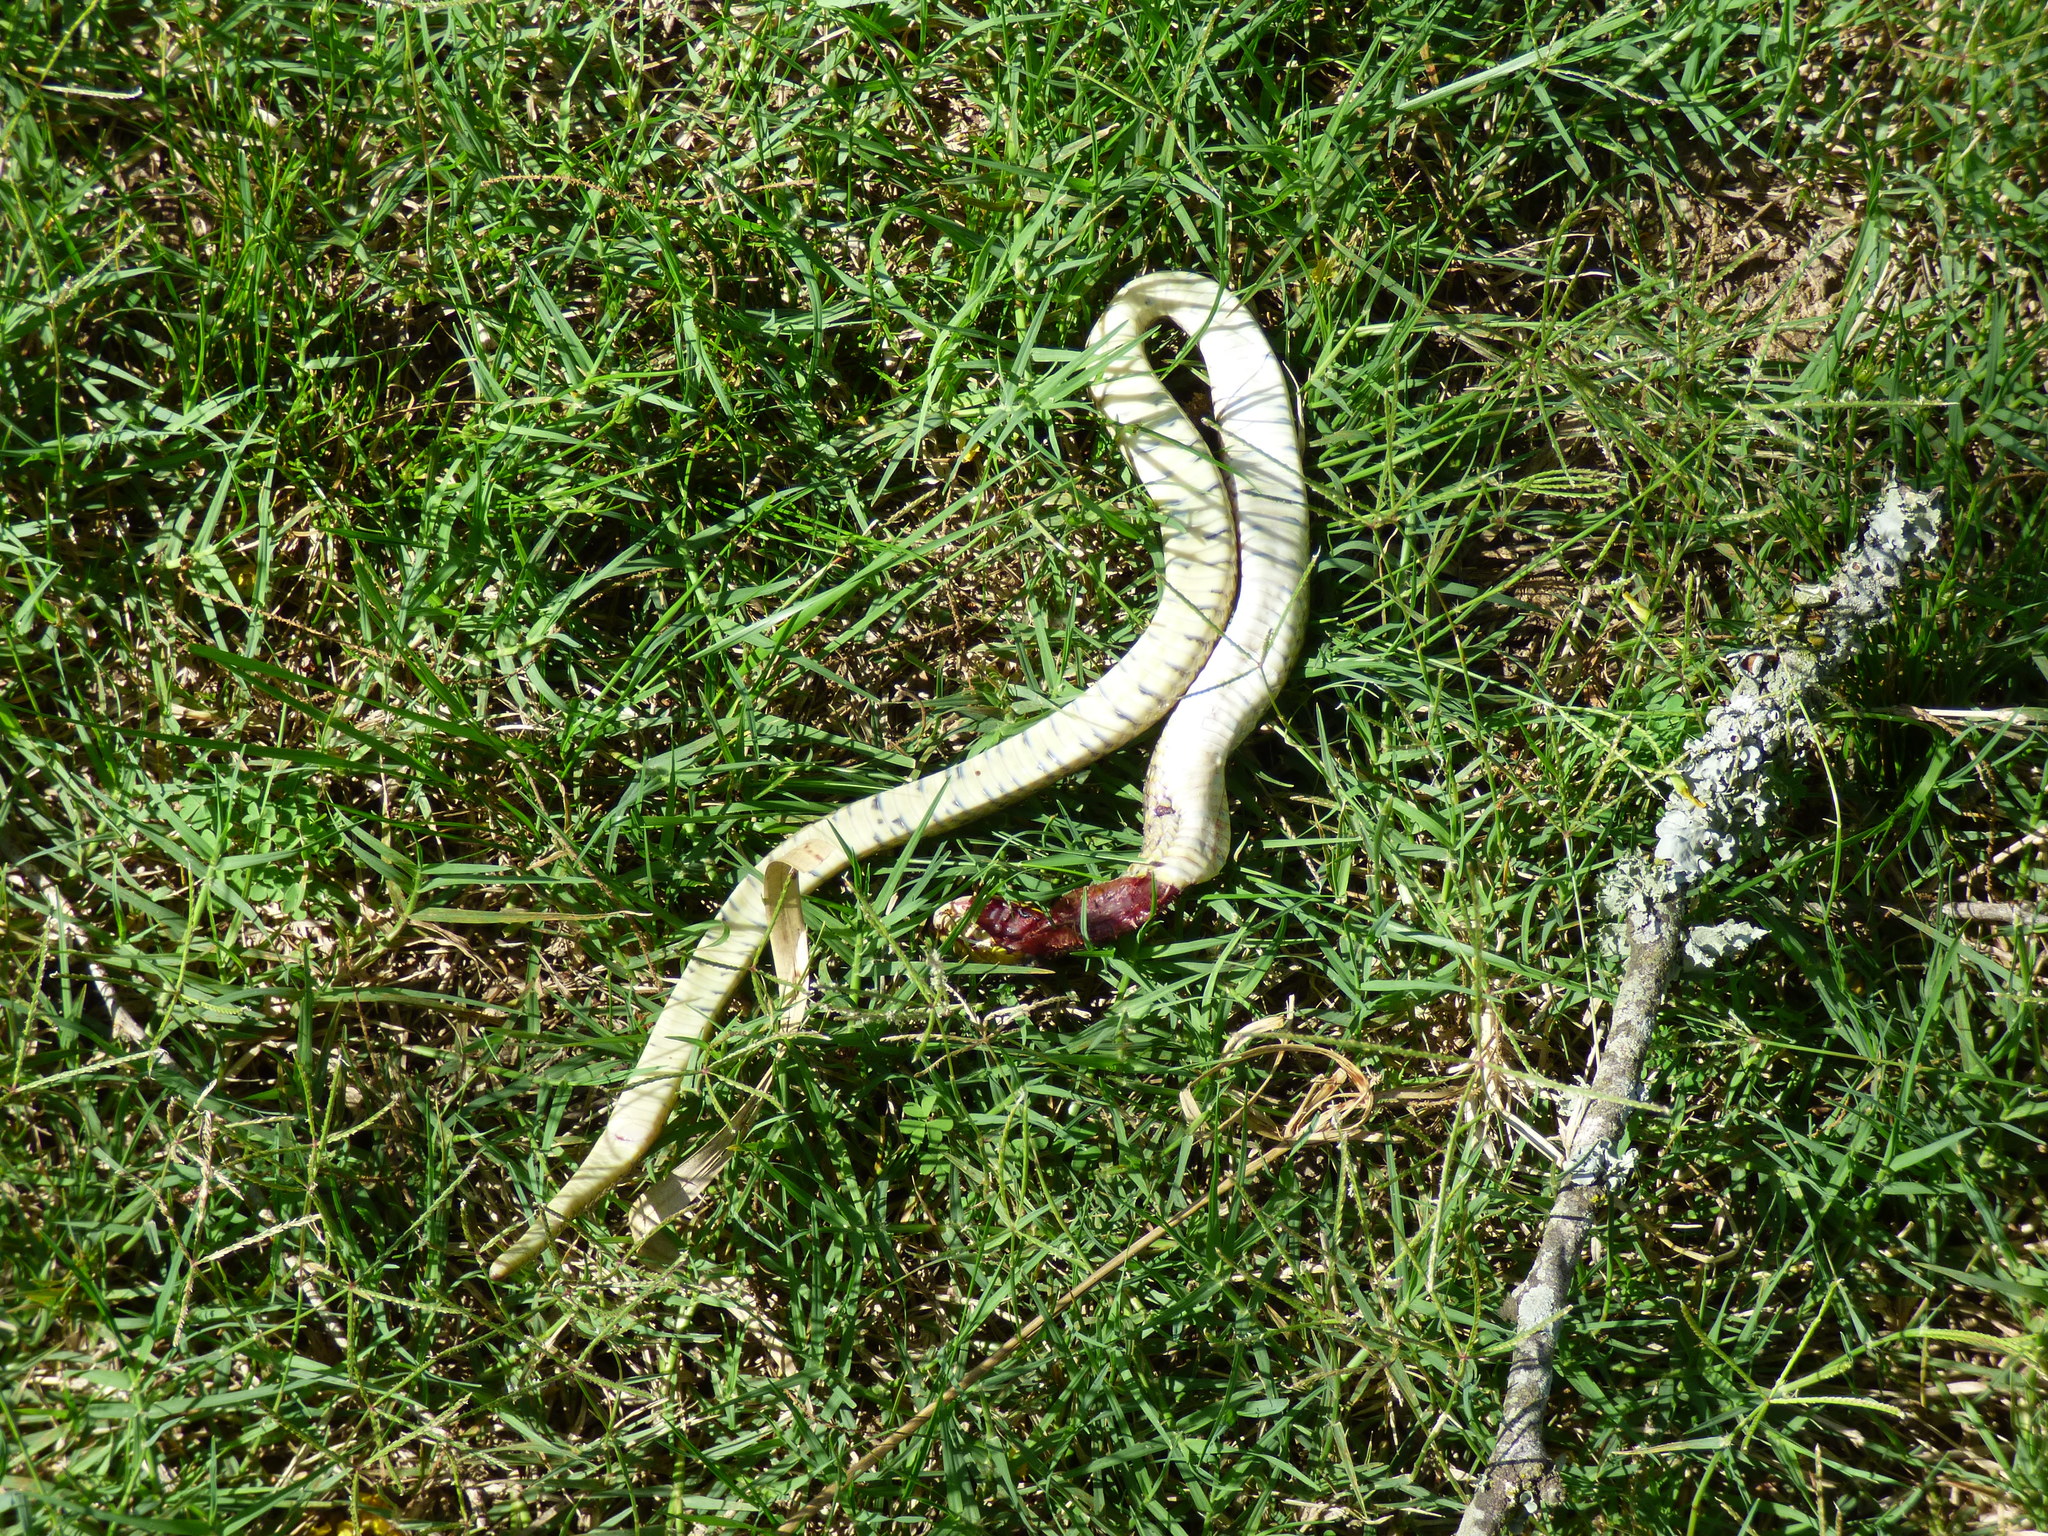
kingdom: Animalia
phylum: Chordata
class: Squamata
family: Colubridae
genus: Erythrolamprus
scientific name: Erythrolamprus poecilogyrus
